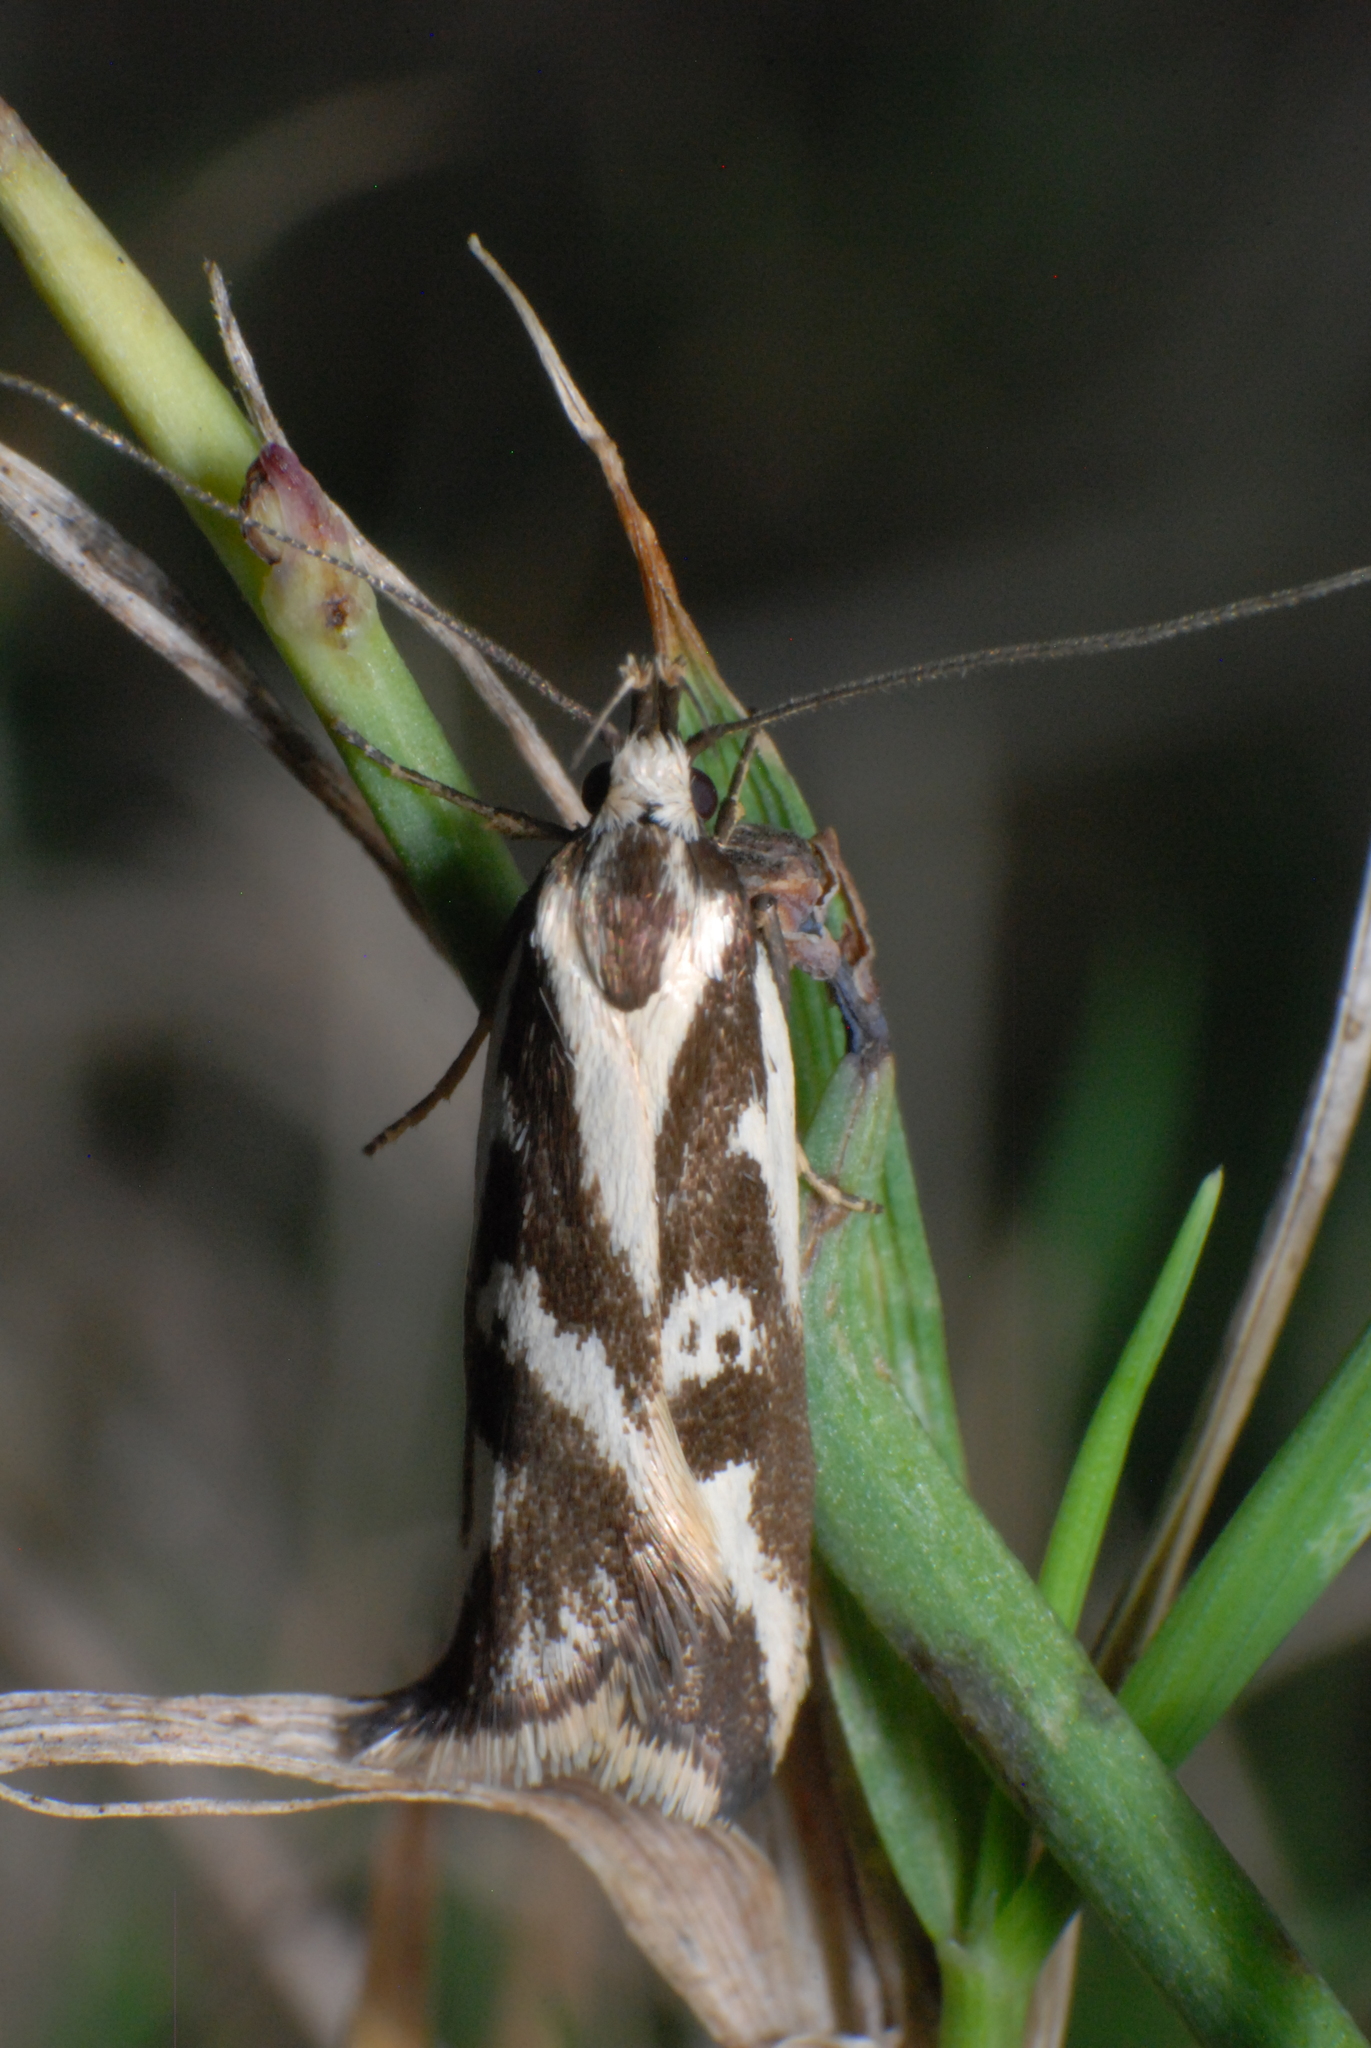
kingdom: Animalia
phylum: Arthropoda
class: Insecta
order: Lepidoptera
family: Oecophoridae
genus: Epithymema
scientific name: Epithymema incomposita
